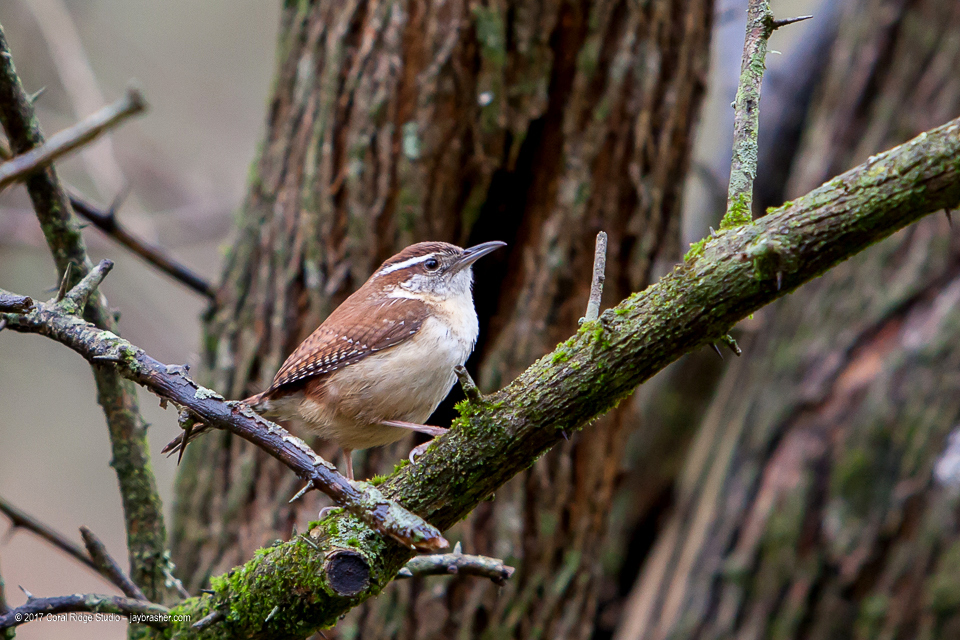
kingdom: Animalia
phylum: Chordata
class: Aves
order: Passeriformes
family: Troglodytidae
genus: Thryothorus
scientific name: Thryothorus ludovicianus
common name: Carolina wren
